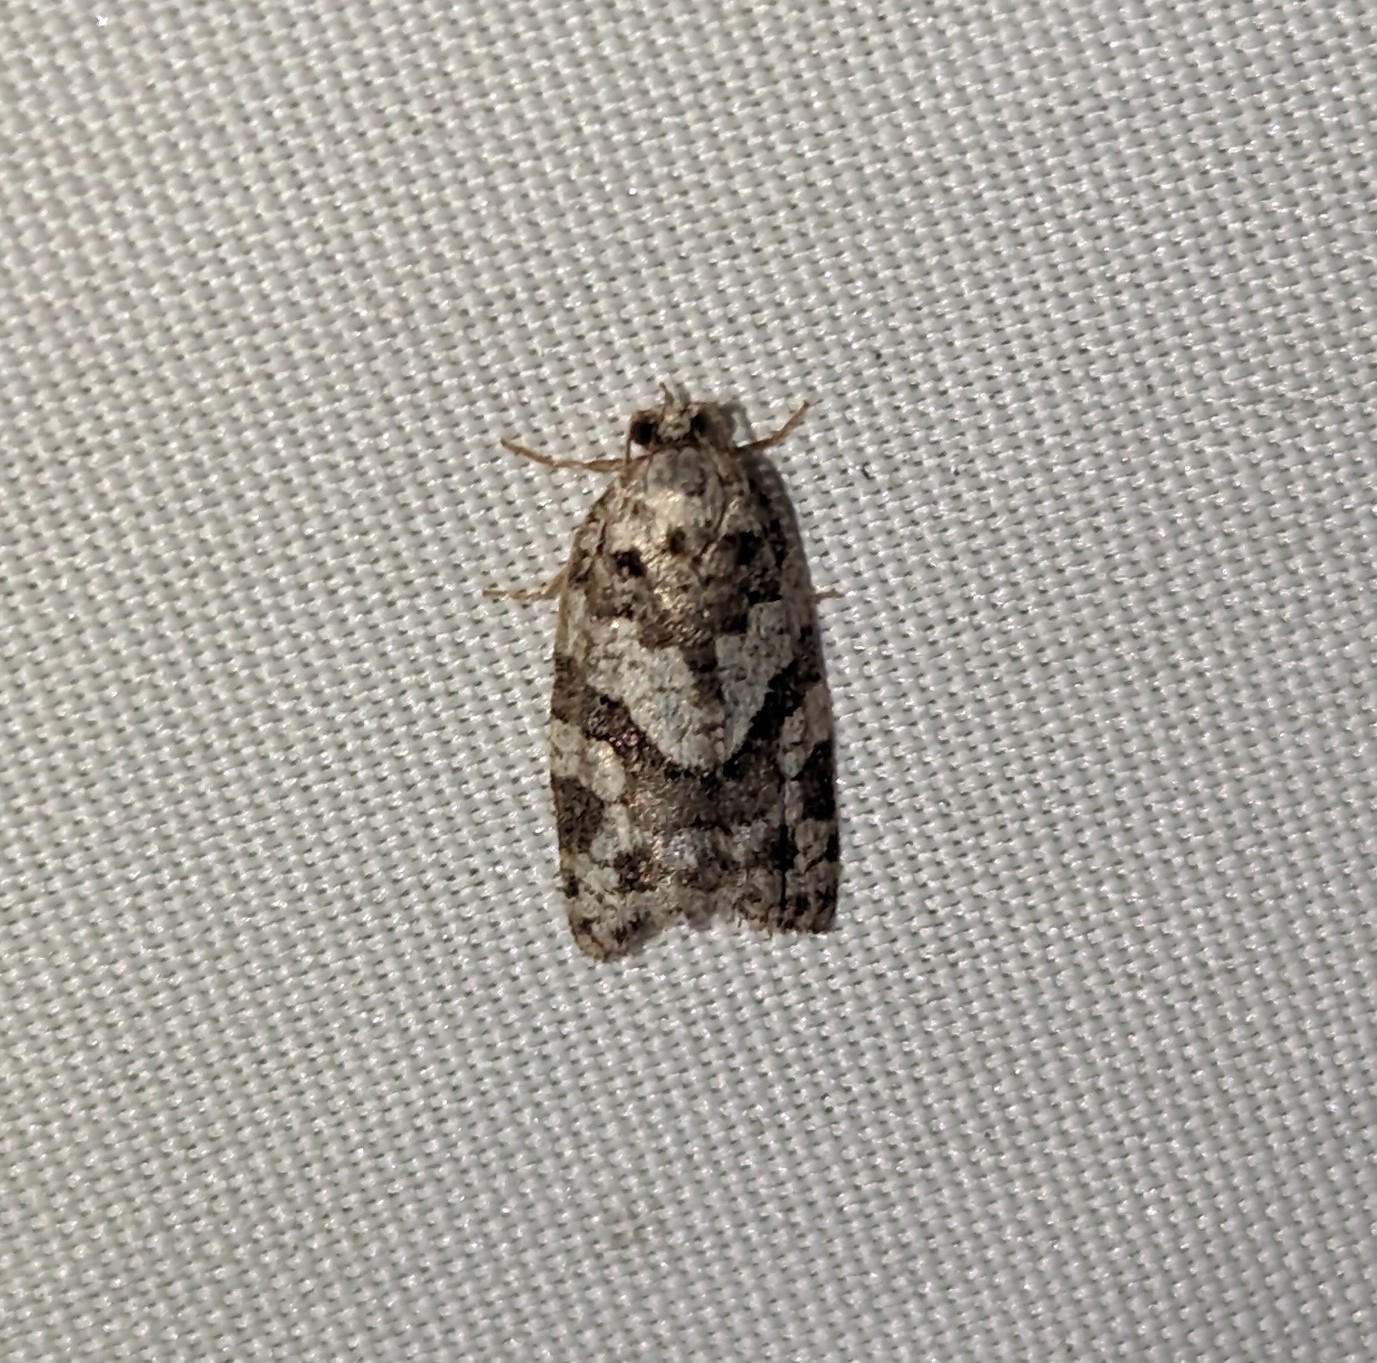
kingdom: Animalia
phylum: Arthropoda
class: Insecta
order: Lepidoptera
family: Tortricidae
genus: Argyrotaenia
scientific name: Argyrotaenia provana
